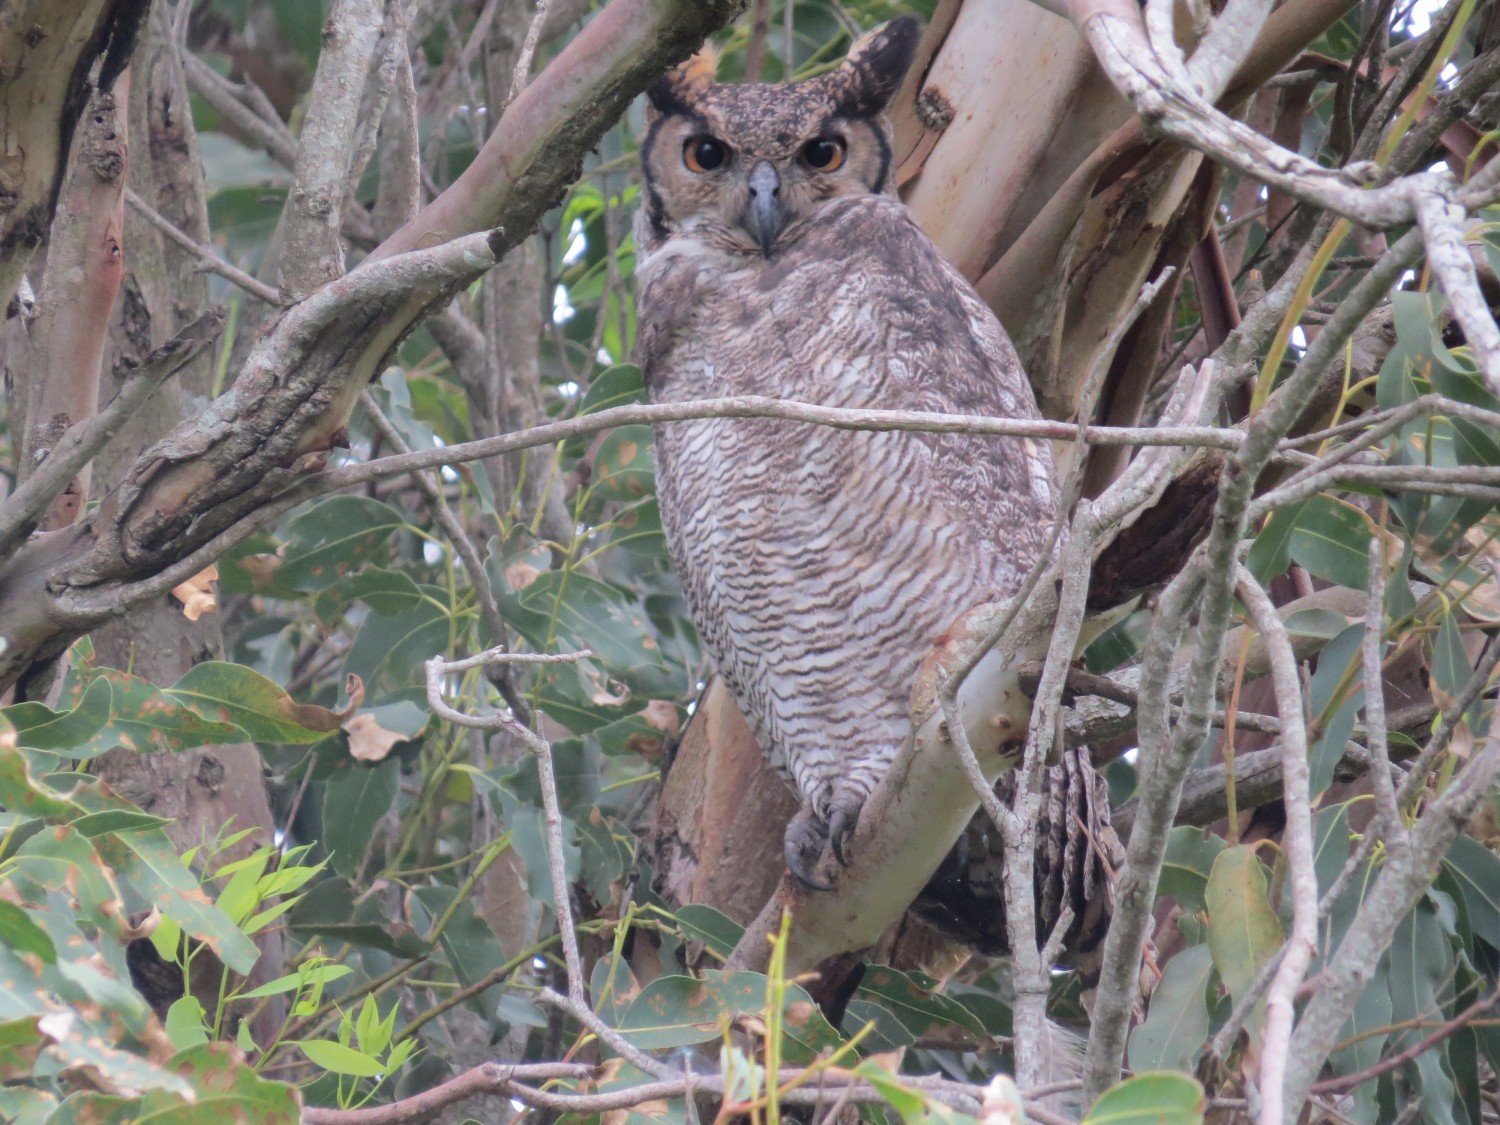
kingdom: Animalia
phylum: Chordata
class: Aves
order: Strigiformes
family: Strigidae
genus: Bubo
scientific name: Bubo virginianus
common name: Great horned owl
